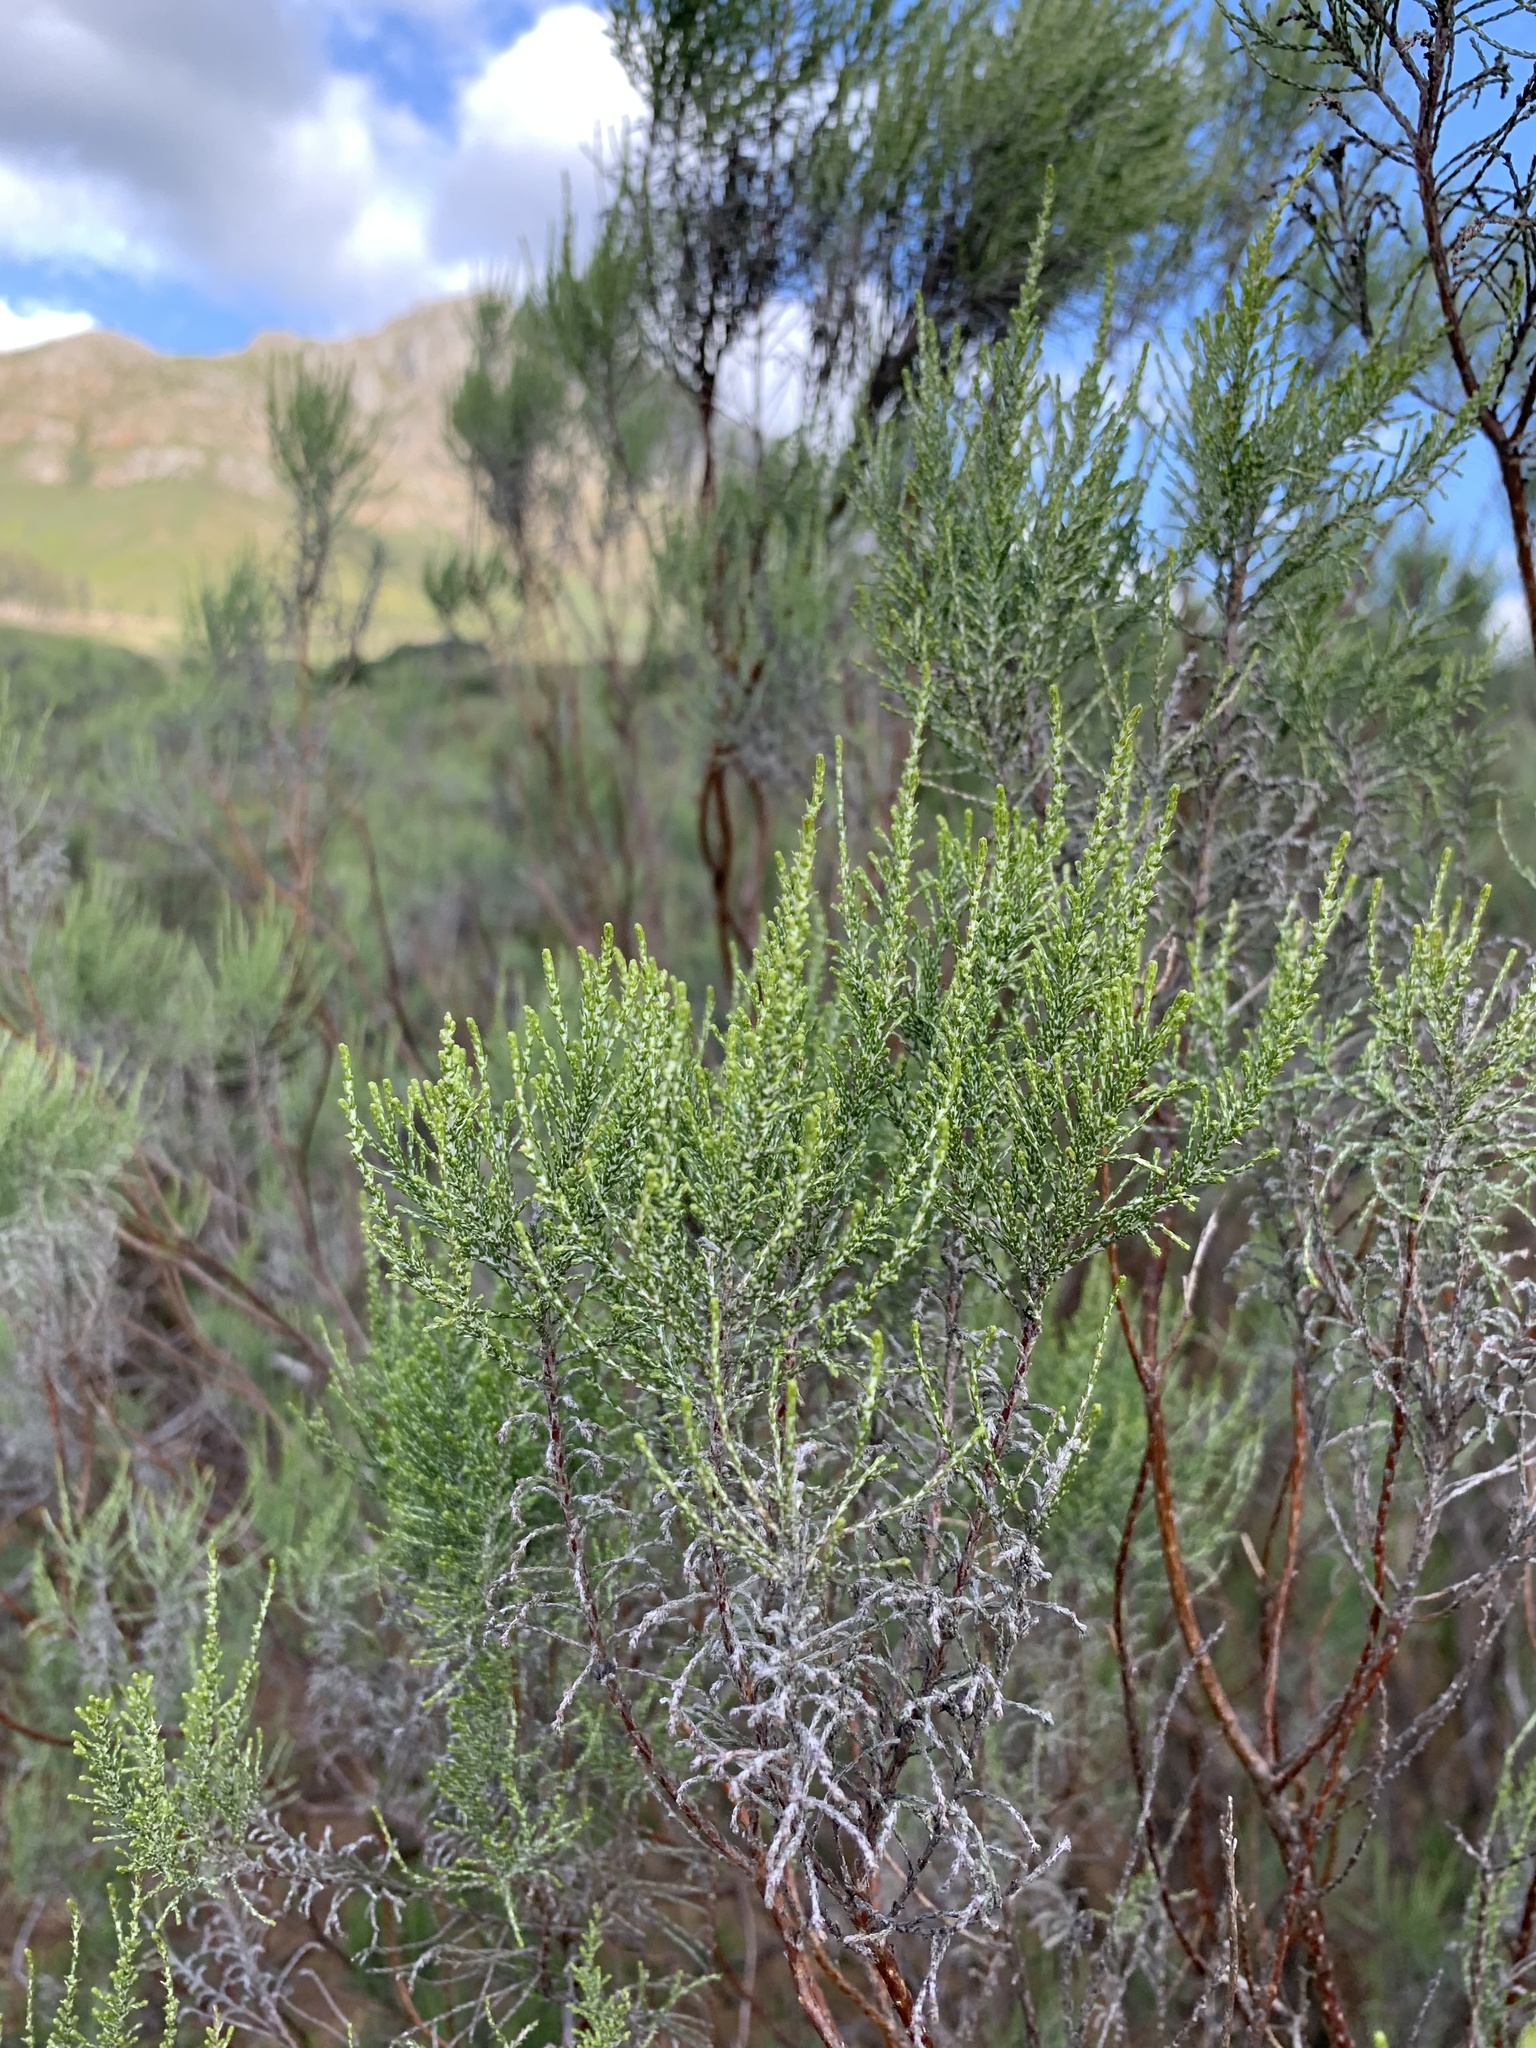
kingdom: Plantae
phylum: Tracheophyta
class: Magnoliopsida
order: Asterales
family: Asteraceae
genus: Dicerothamnus
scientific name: Dicerothamnus rhinocerotis
